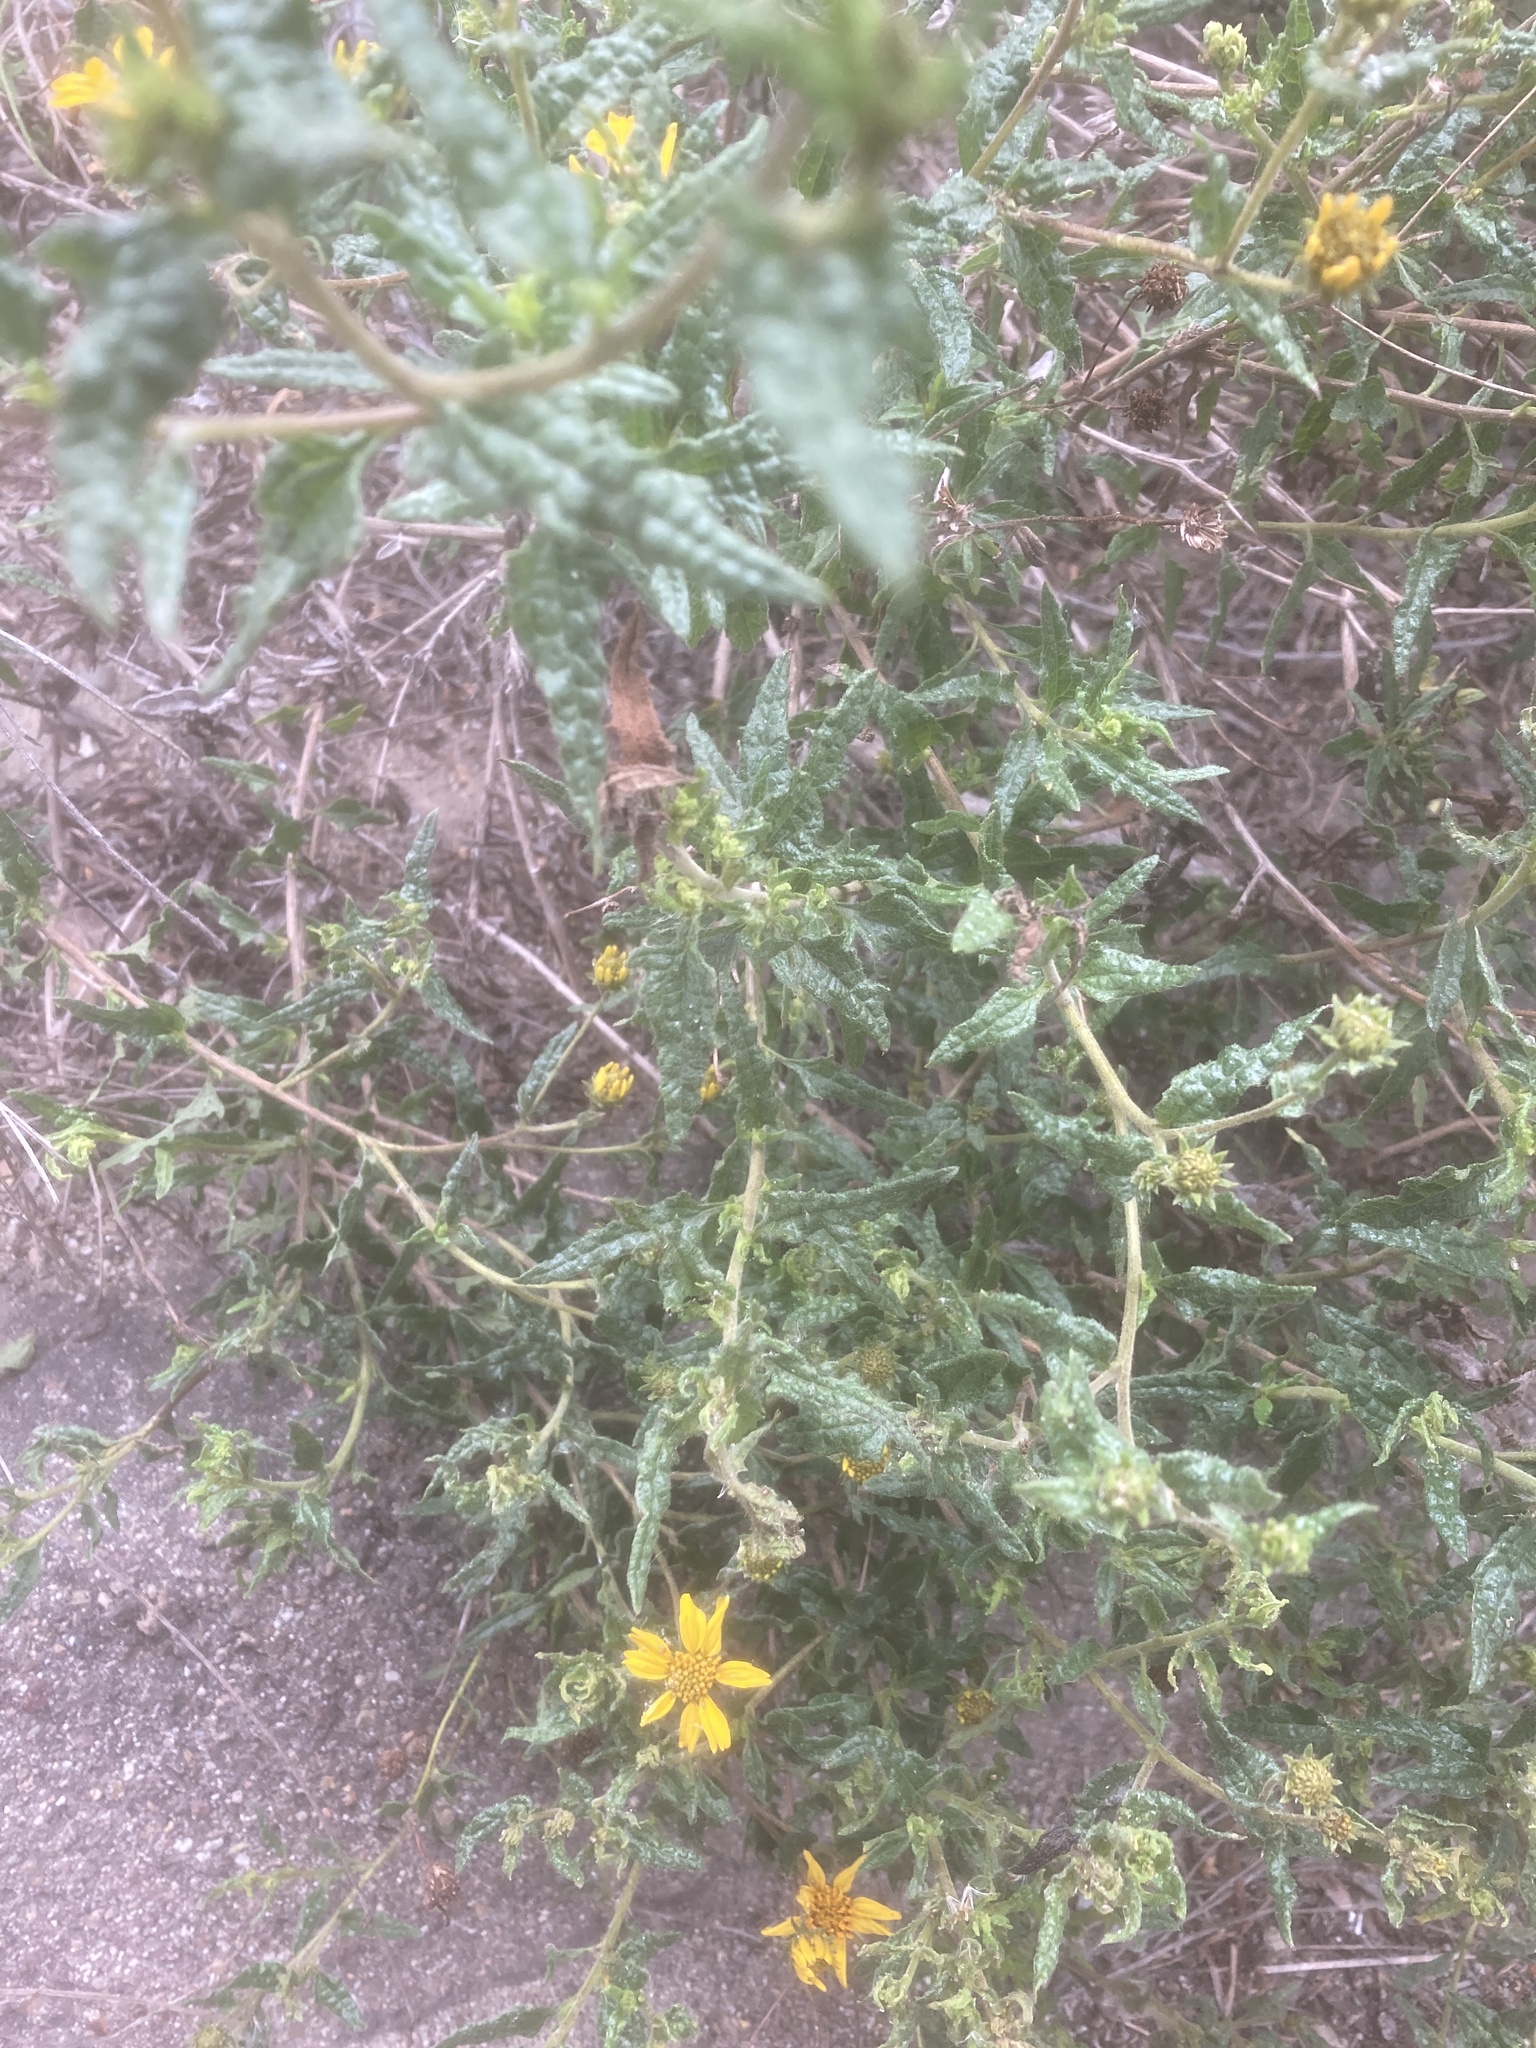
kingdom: Plantae
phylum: Tracheophyta
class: Magnoliopsida
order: Asterales
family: Asteraceae
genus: Bahiopsis
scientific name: Bahiopsis laciniata
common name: San diego county viguiera
